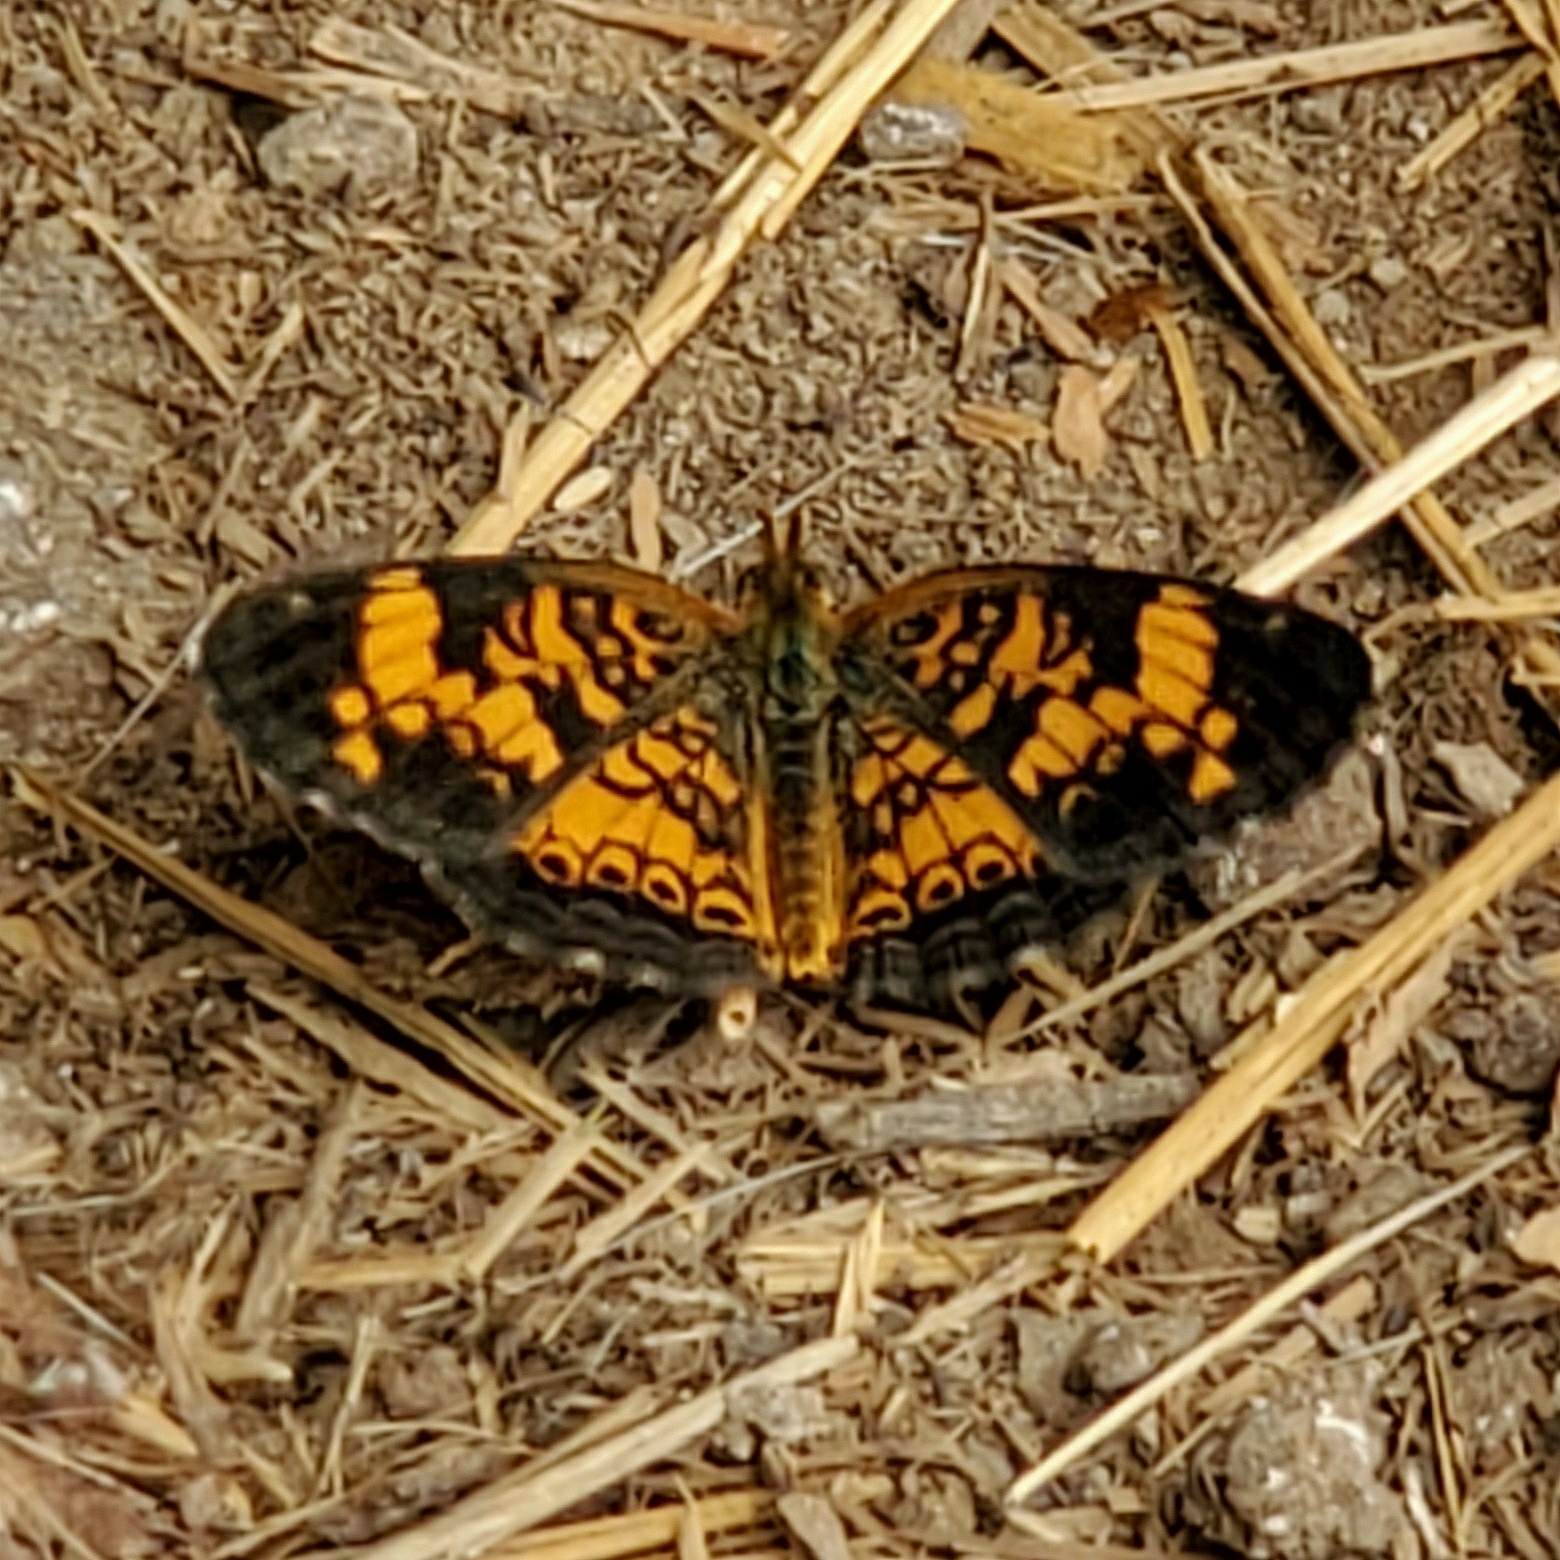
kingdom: Animalia
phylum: Arthropoda
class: Insecta
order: Lepidoptera
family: Nymphalidae
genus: Phyciodes
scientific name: Phyciodes tharos
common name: Pearl crescent
